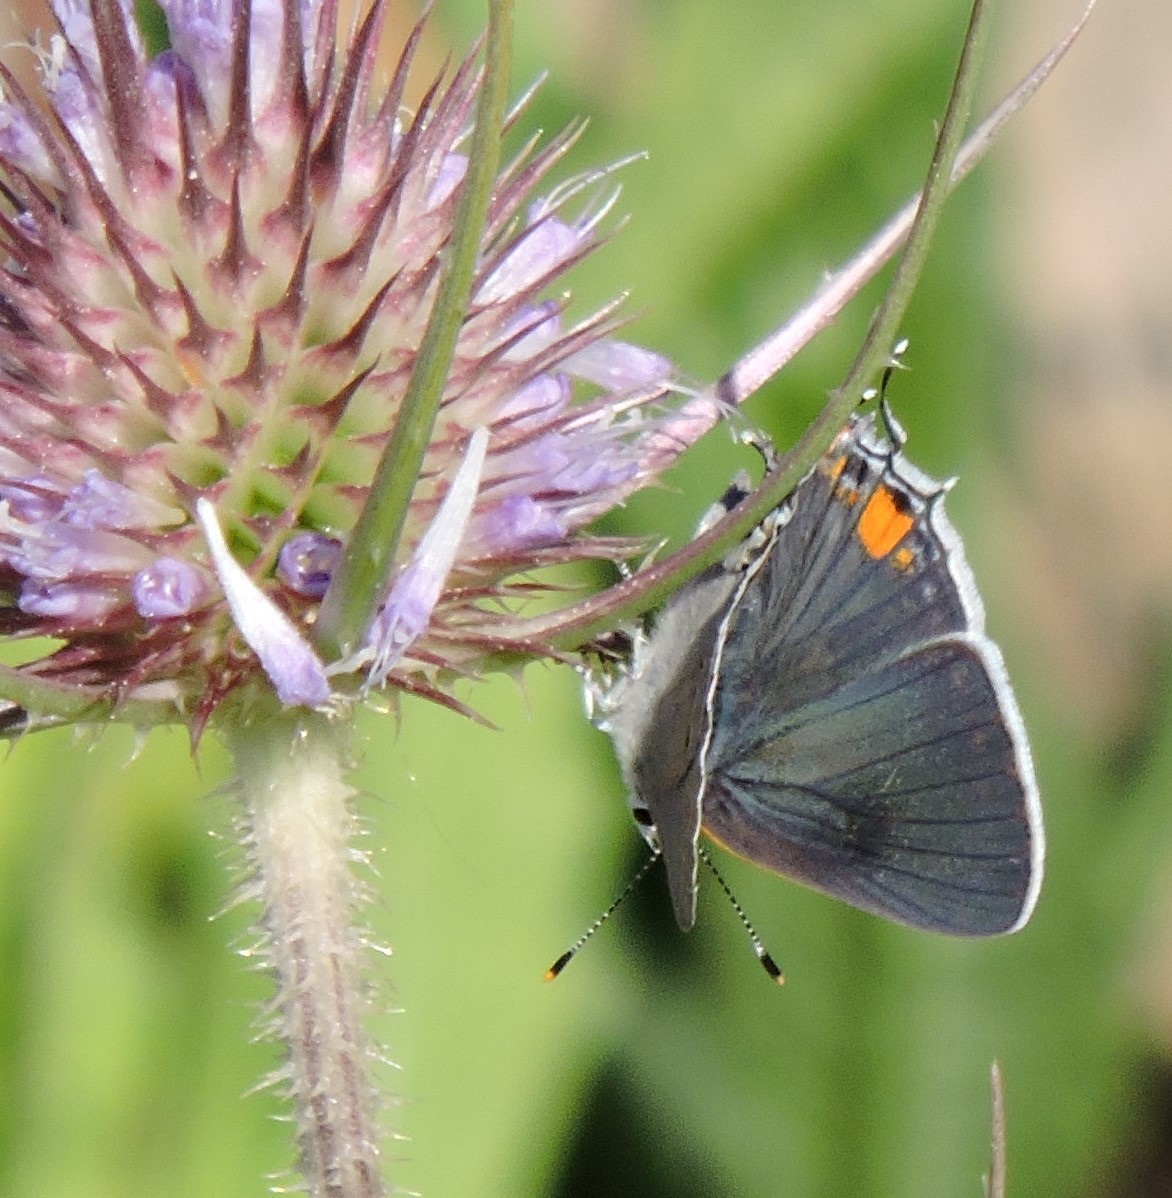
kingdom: Animalia
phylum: Arthropoda
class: Insecta
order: Lepidoptera
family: Lycaenidae
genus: Strymon
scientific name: Strymon melinus
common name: Gray hairstreak
